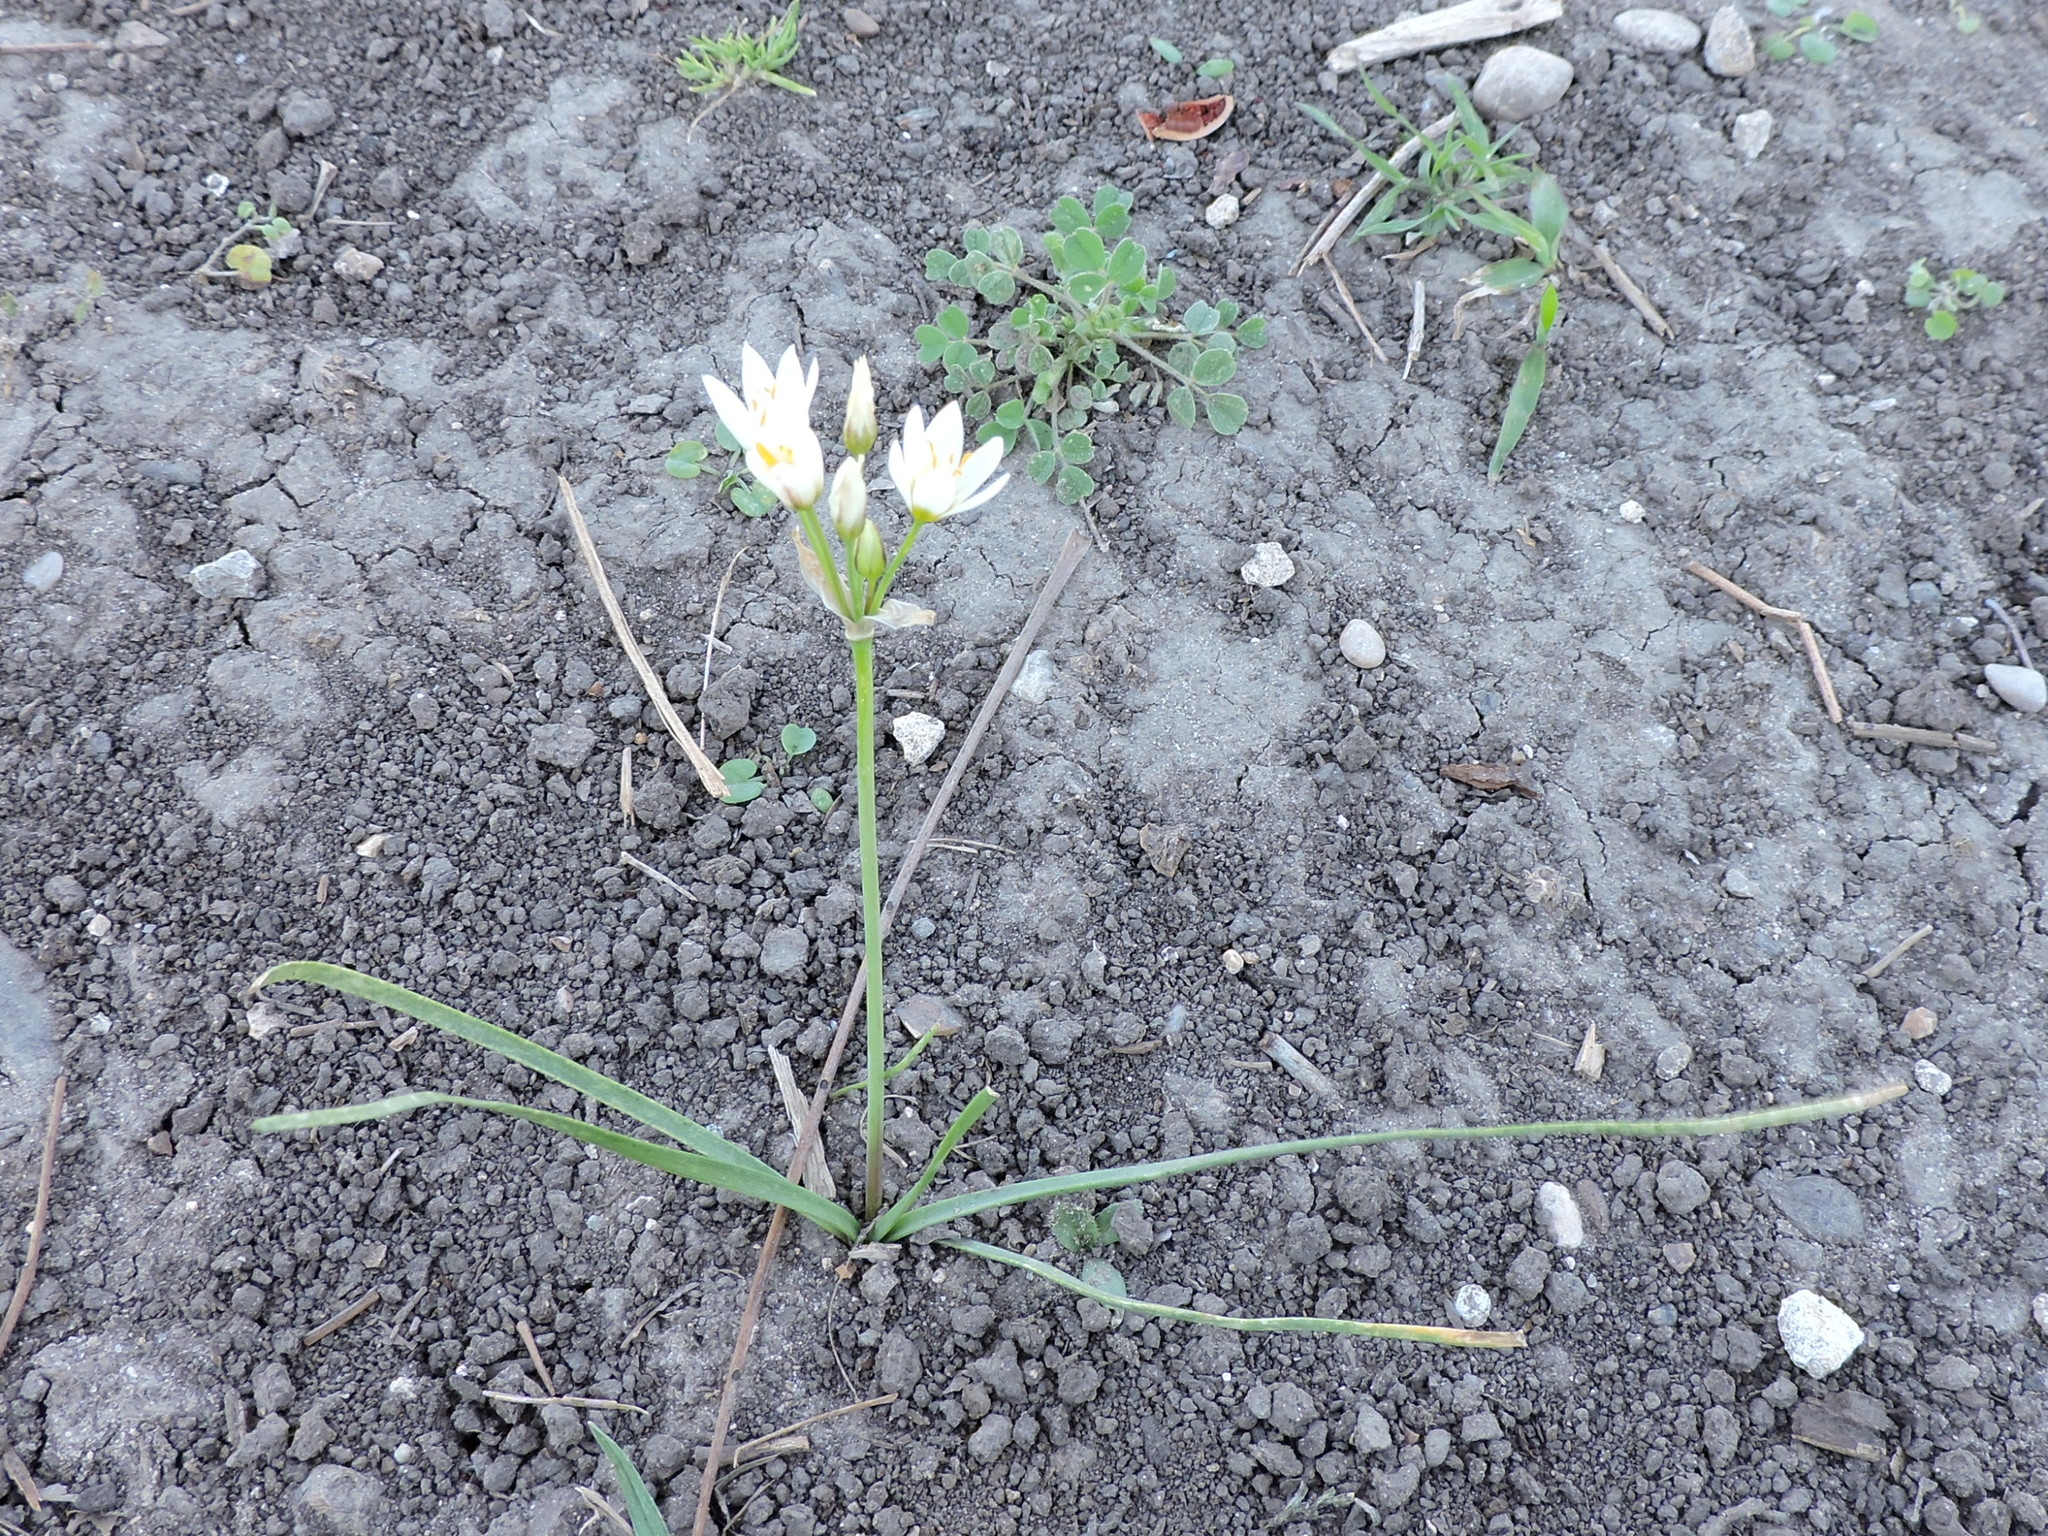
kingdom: Plantae
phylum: Tracheophyta
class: Liliopsida
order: Asparagales
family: Amaryllidaceae
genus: Nothoscordum
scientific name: Nothoscordum bivalve
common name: Crow-poison
